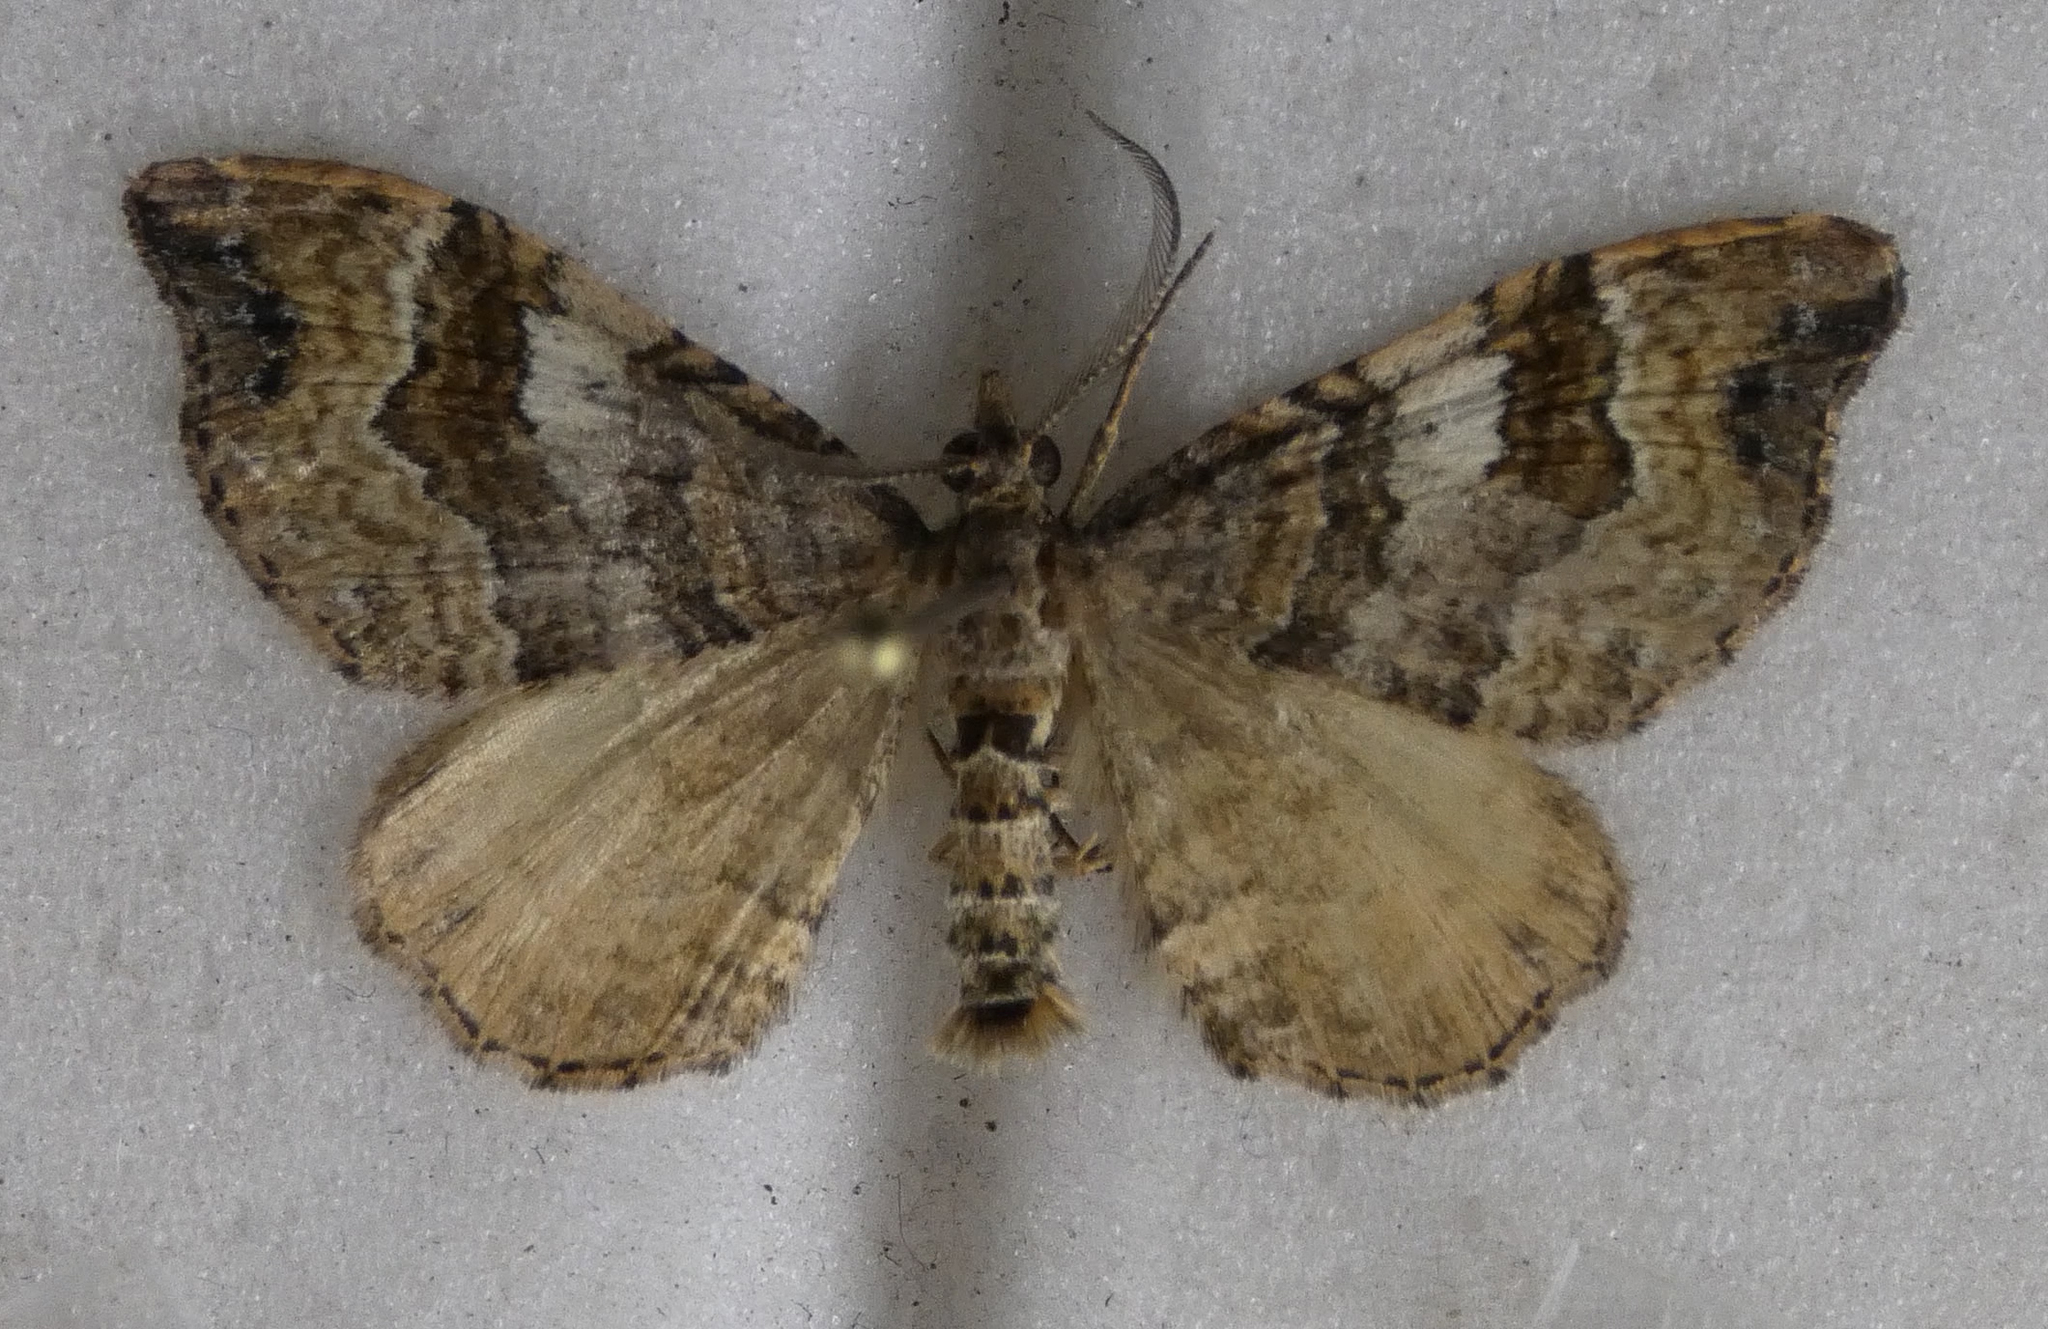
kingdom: Animalia
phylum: Arthropoda
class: Insecta
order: Lepidoptera
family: Geometridae
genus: Homodotis
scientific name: Homodotis megaspilata
